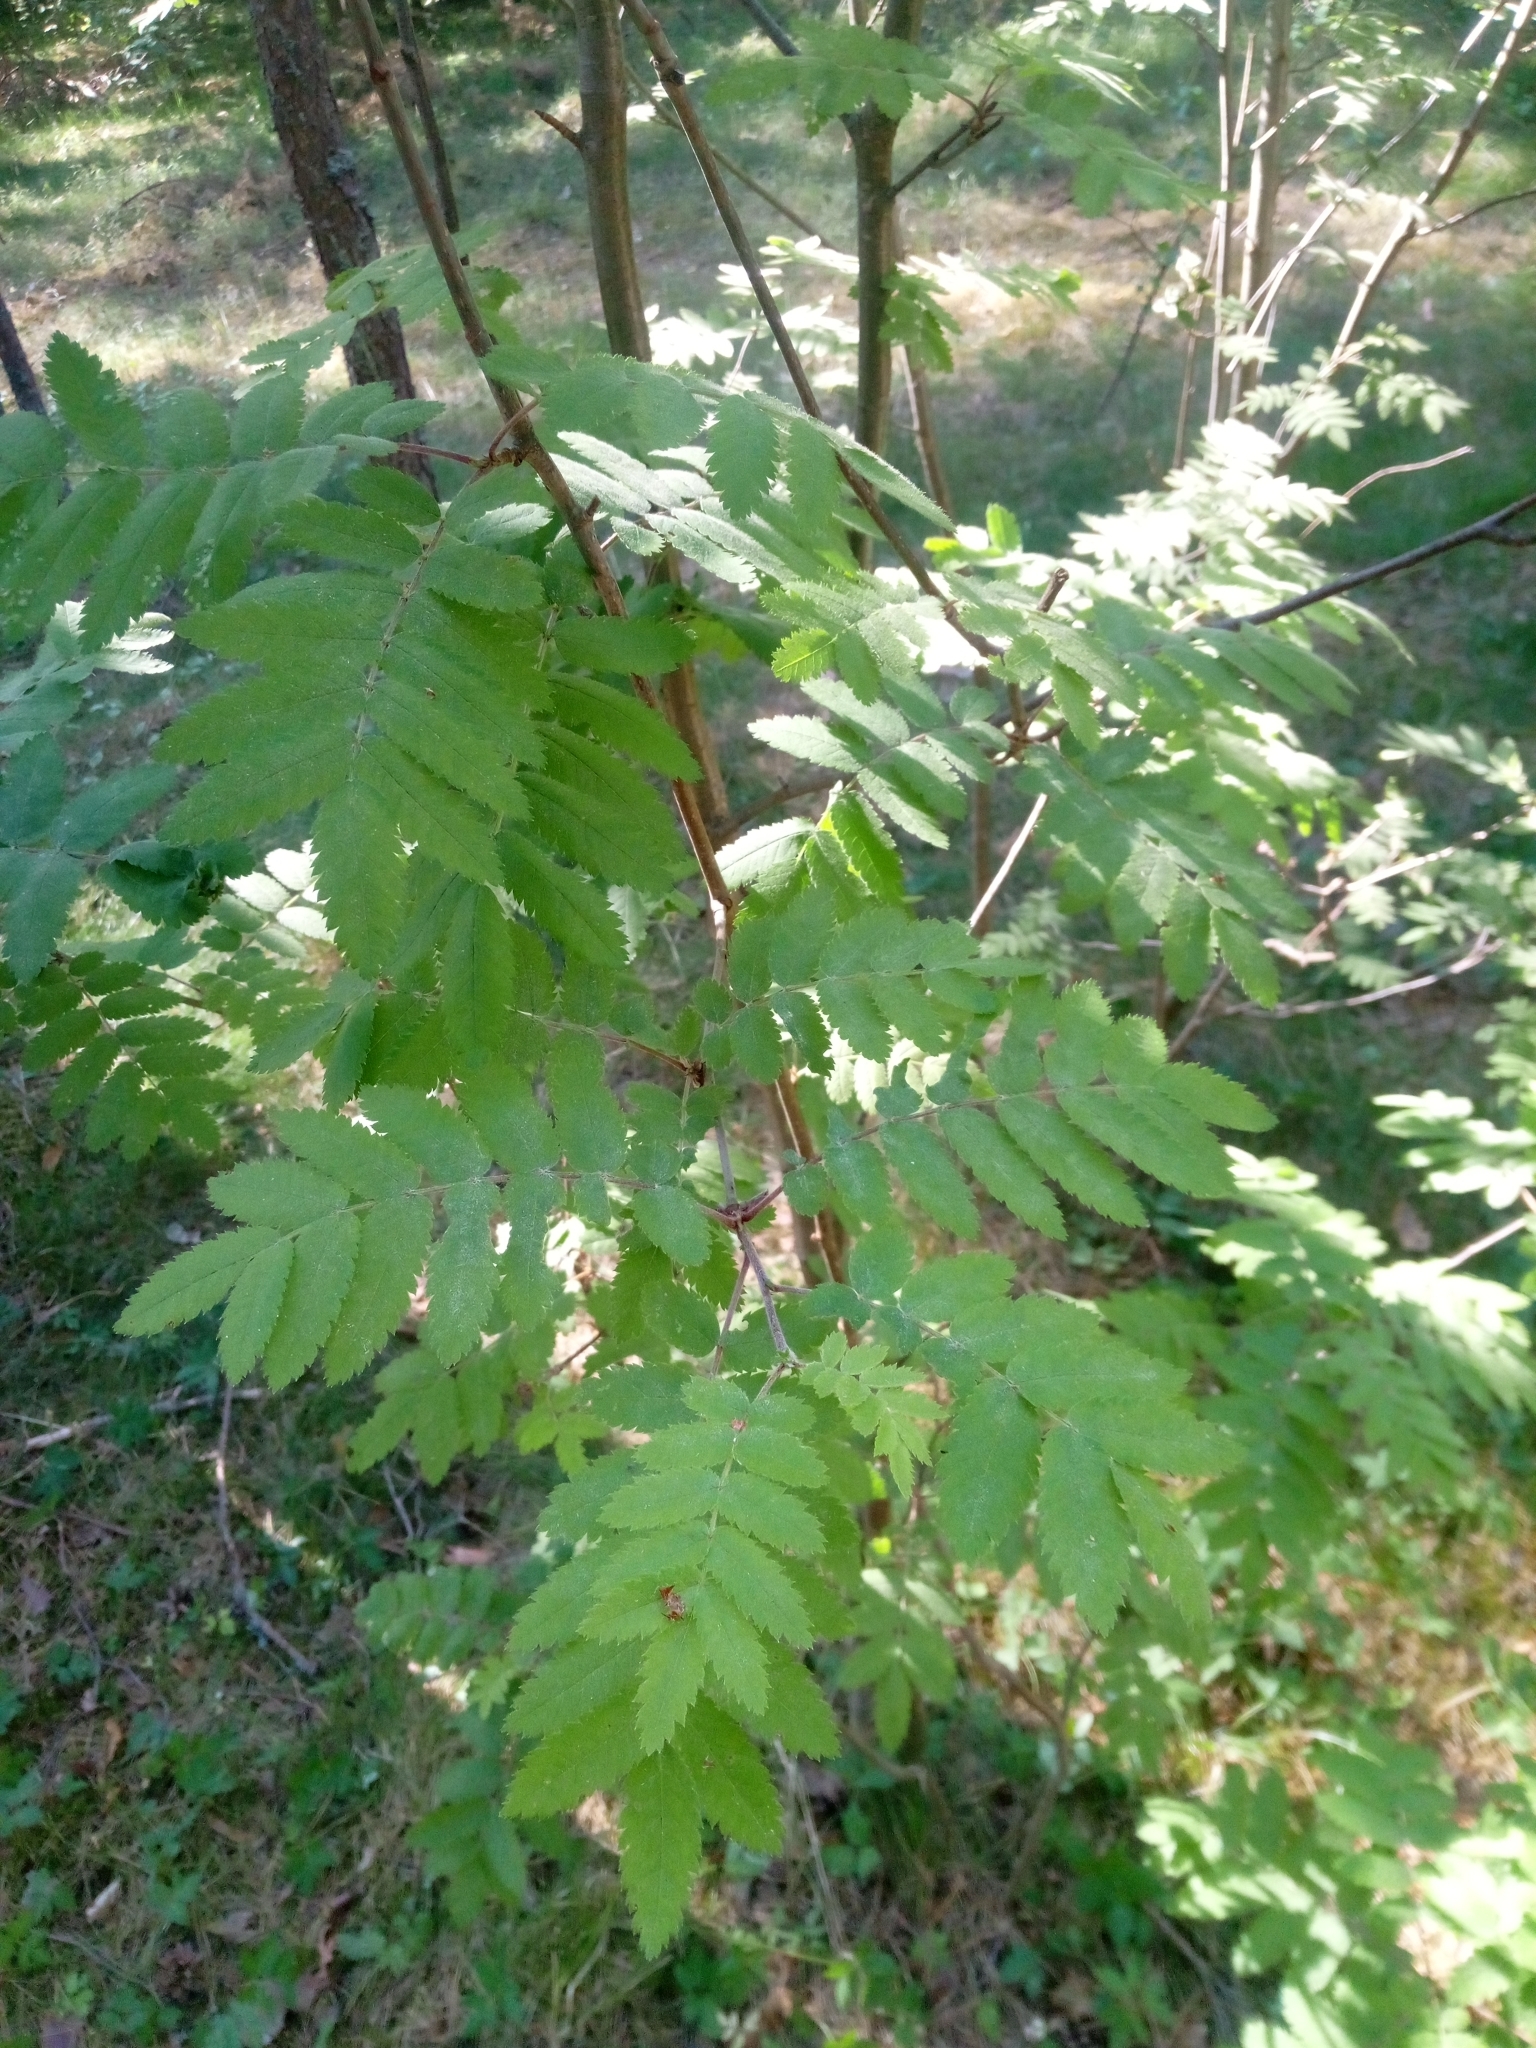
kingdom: Plantae
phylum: Tracheophyta
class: Magnoliopsida
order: Rosales
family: Rosaceae
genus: Sorbus
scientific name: Sorbus aucuparia
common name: Rowan
